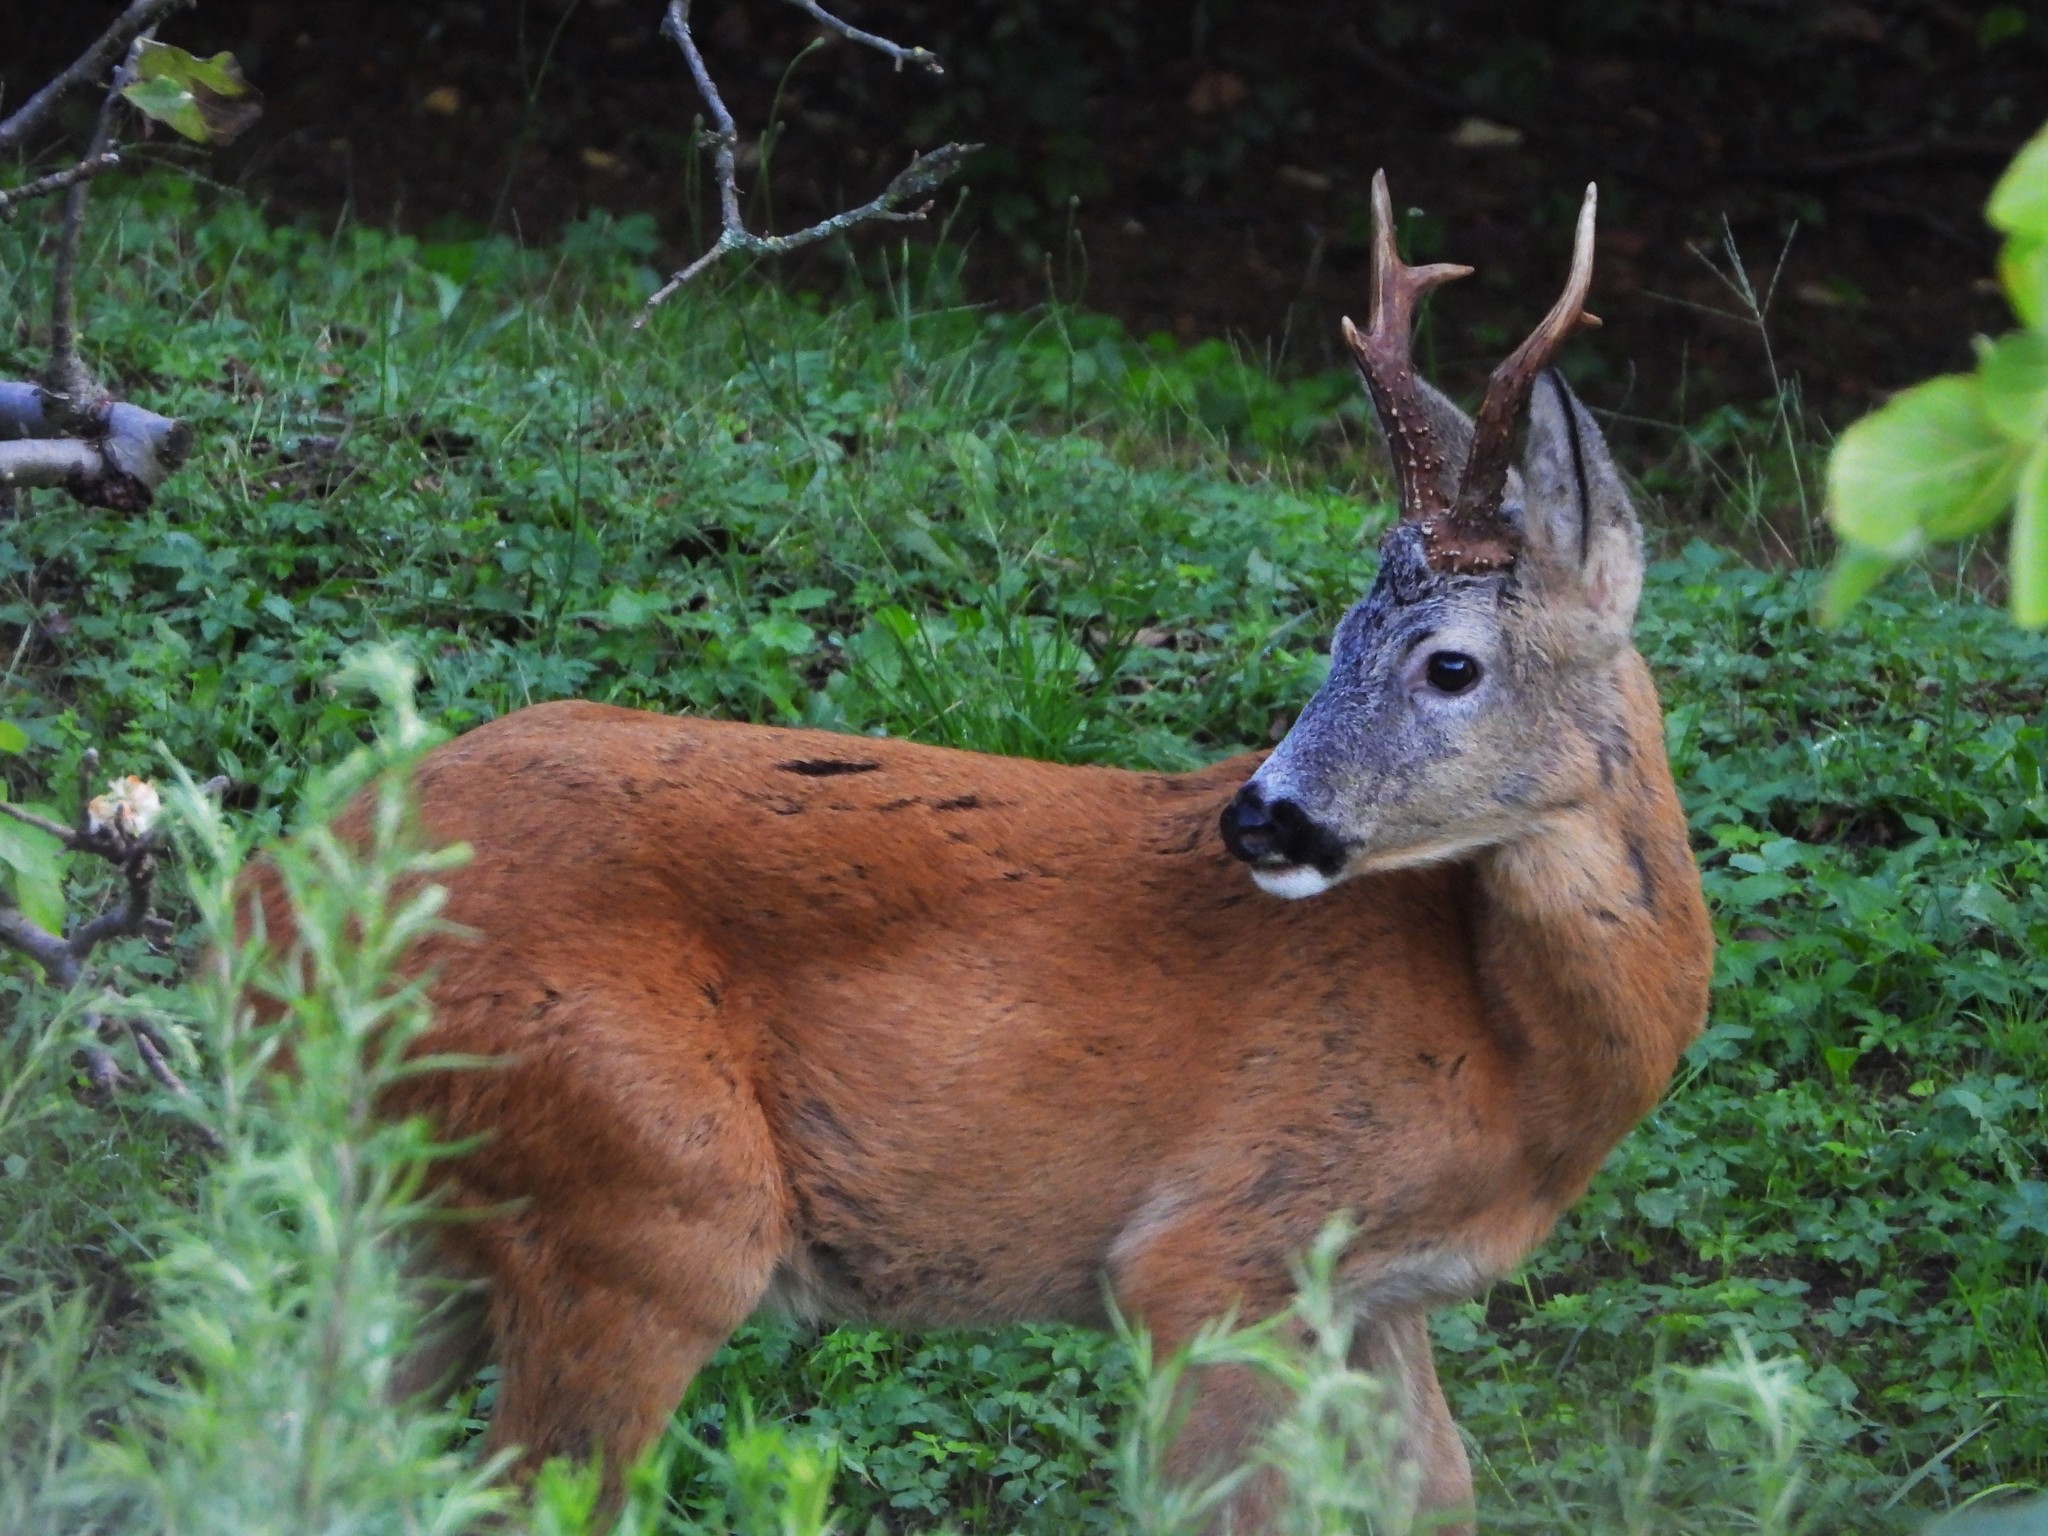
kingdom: Animalia
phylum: Chordata
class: Mammalia
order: Artiodactyla
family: Cervidae
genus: Capreolus
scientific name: Capreolus capreolus
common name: Western roe deer
